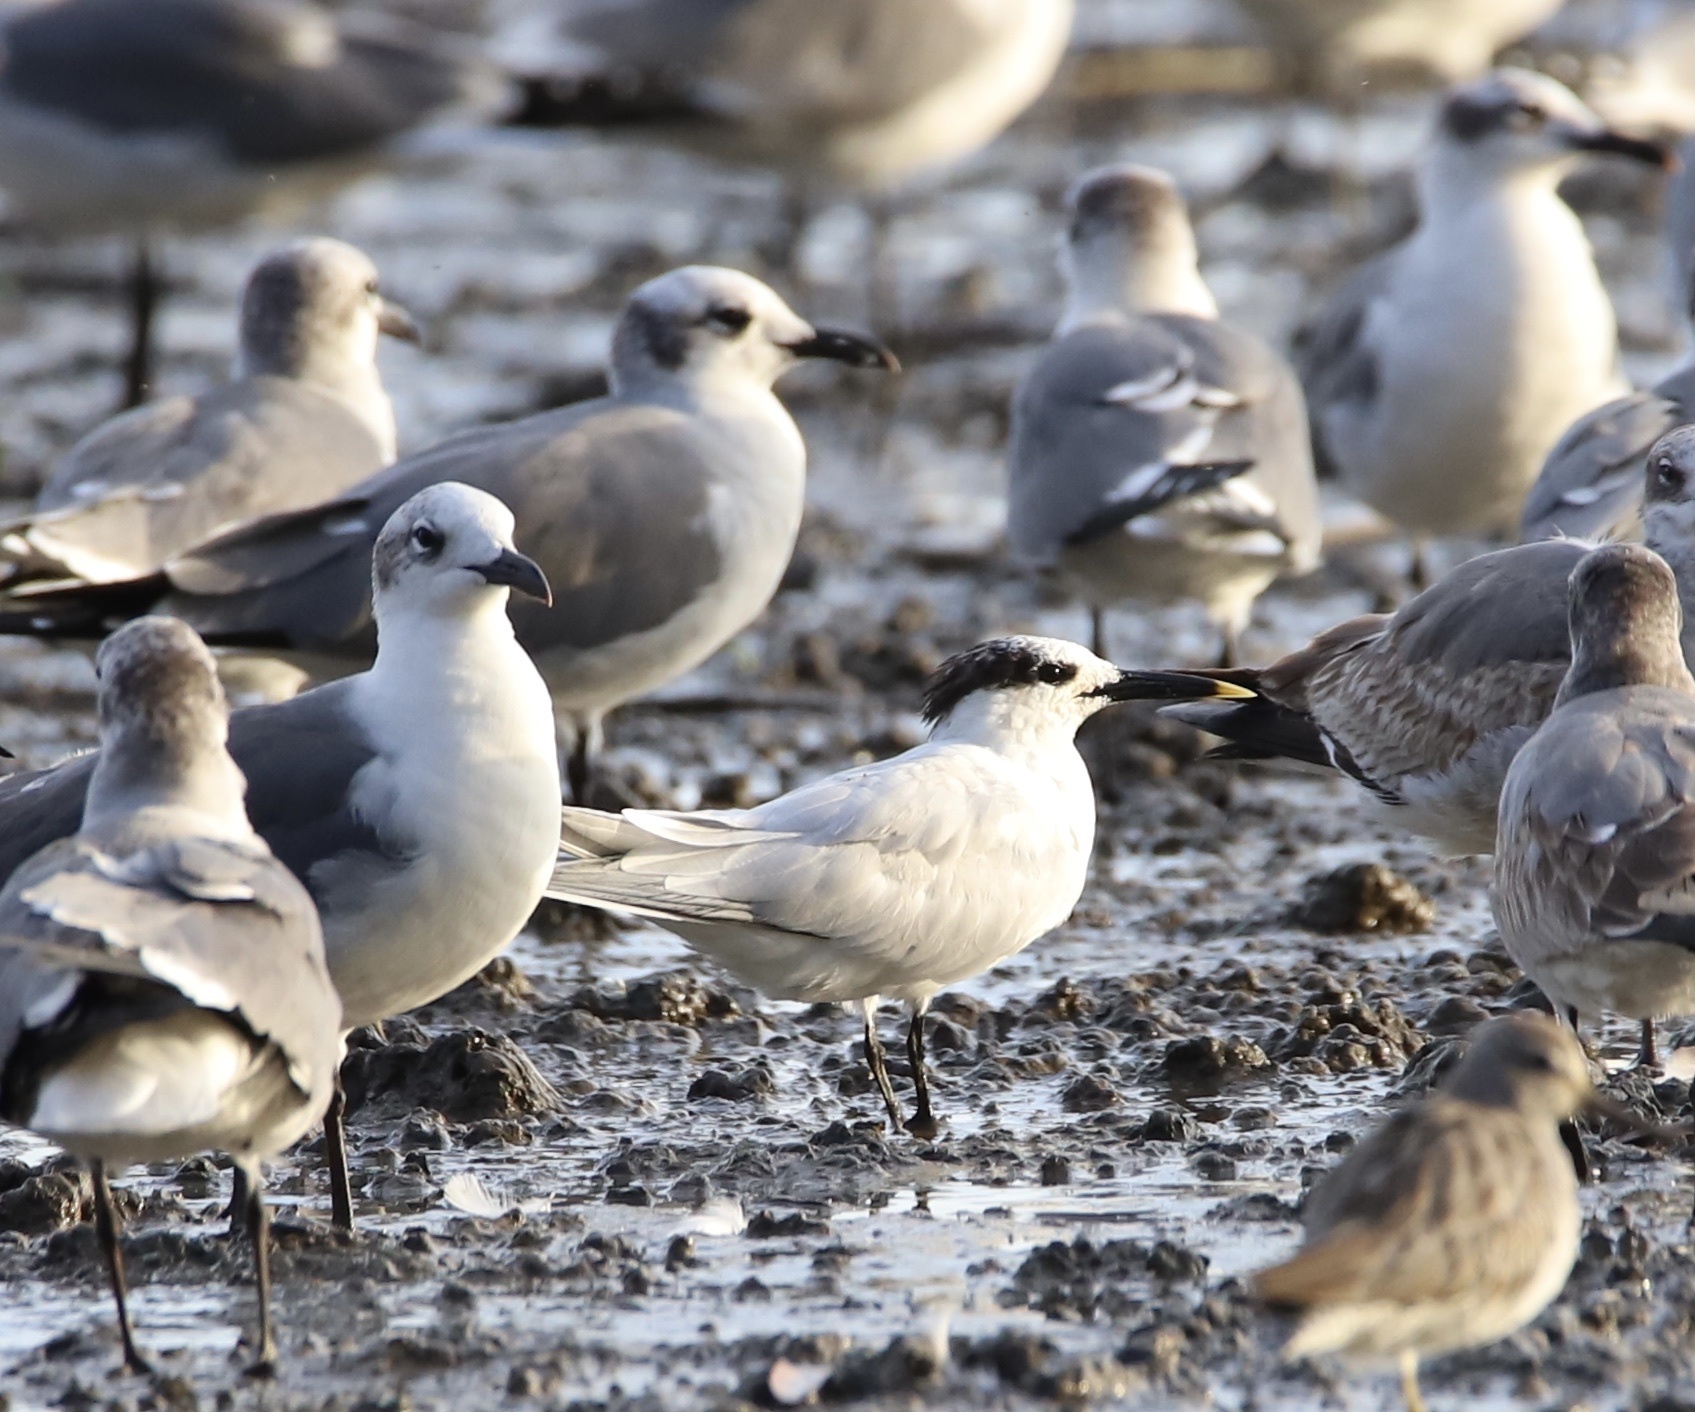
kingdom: Animalia
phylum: Chordata
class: Aves
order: Charadriiformes
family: Laridae
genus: Thalasseus
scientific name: Thalasseus sandvicensis
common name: Sandwich tern
